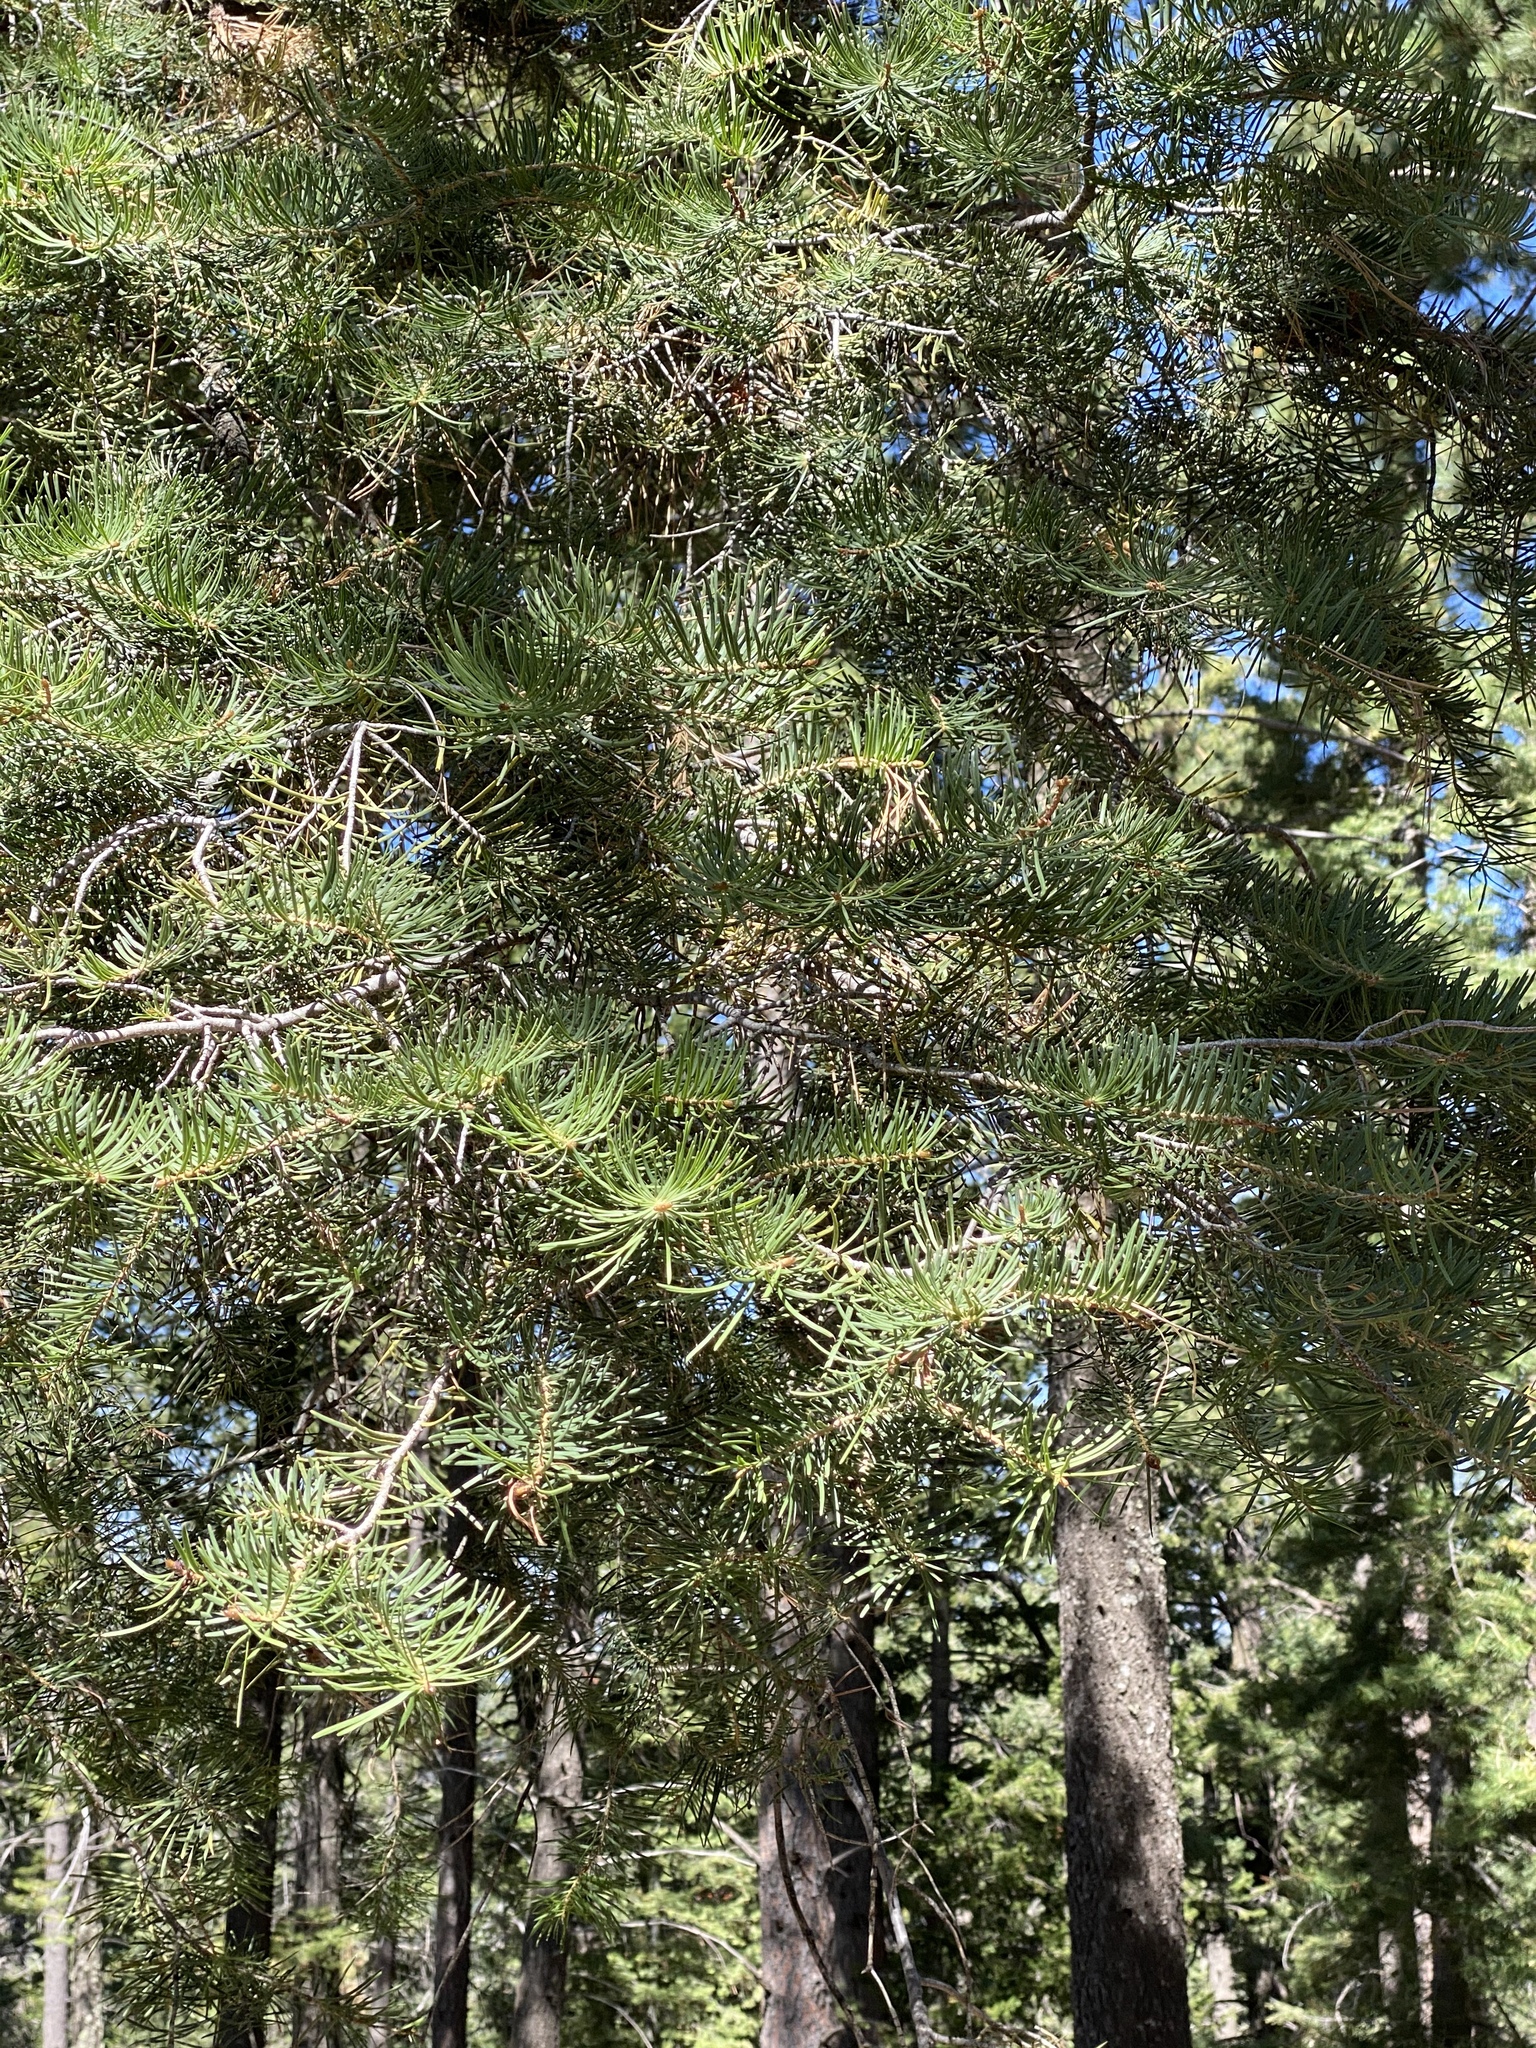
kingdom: Plantae
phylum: Tracheophyta
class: Pinopsida
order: Pinales
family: Pinaceae
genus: Abies
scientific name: Abies concolor
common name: Colorado fir
